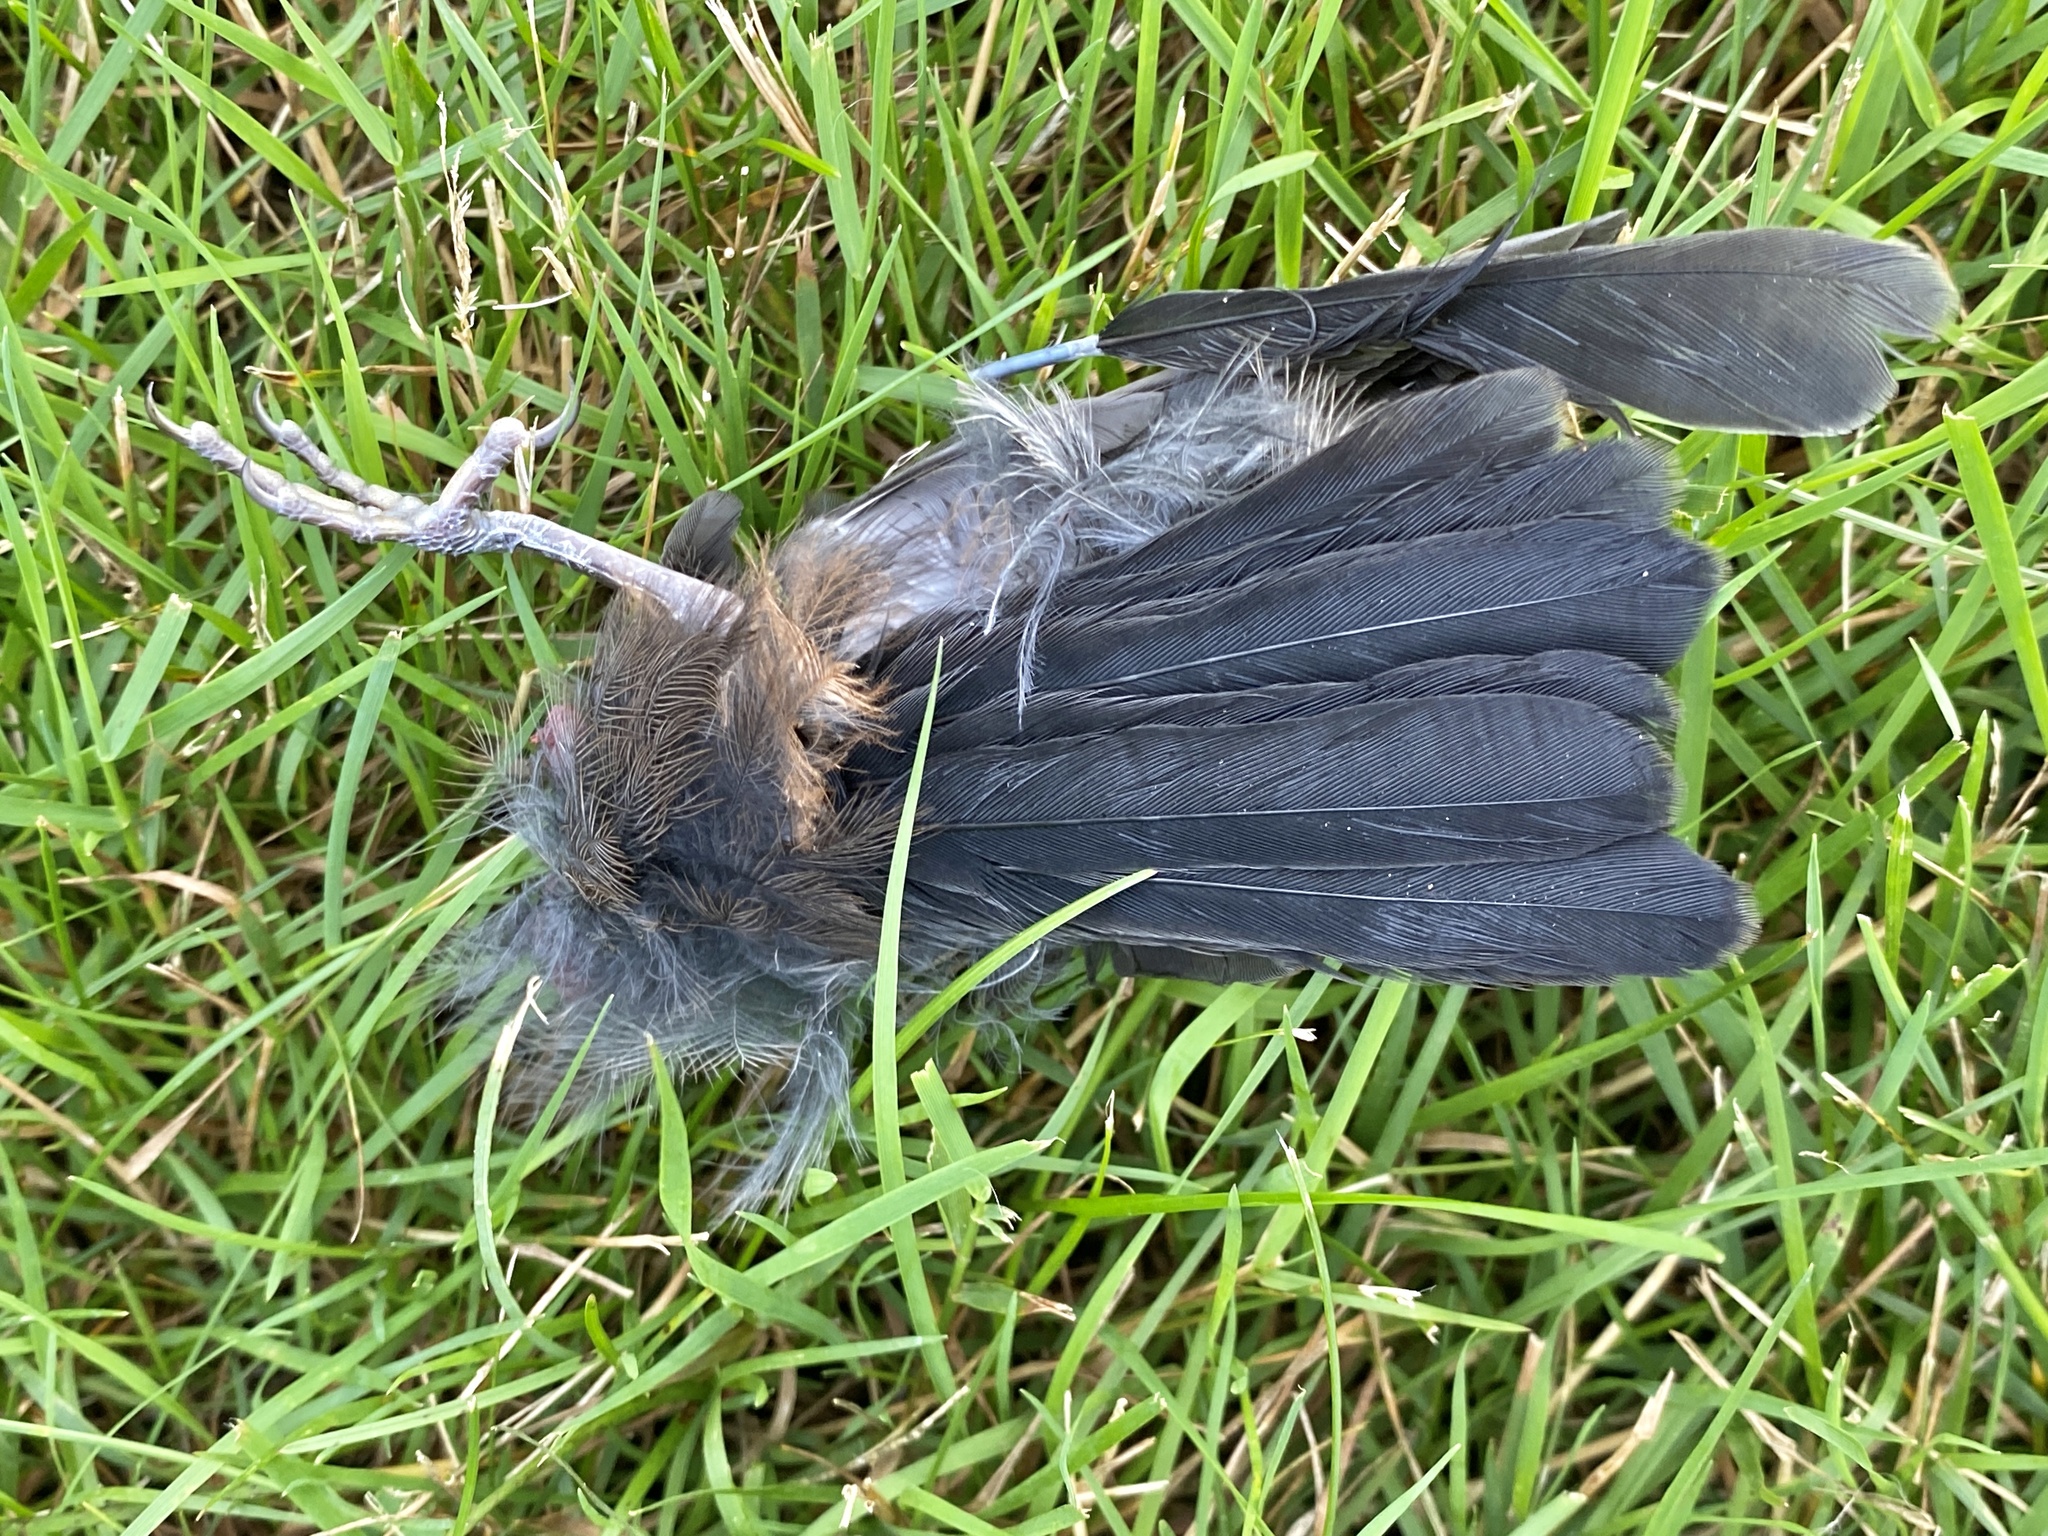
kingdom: Animalia
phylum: Chordata
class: Aves
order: Passeriformes
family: Icteridae
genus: Quiscalus
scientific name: Quiscalus quiscula
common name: Common grackle
